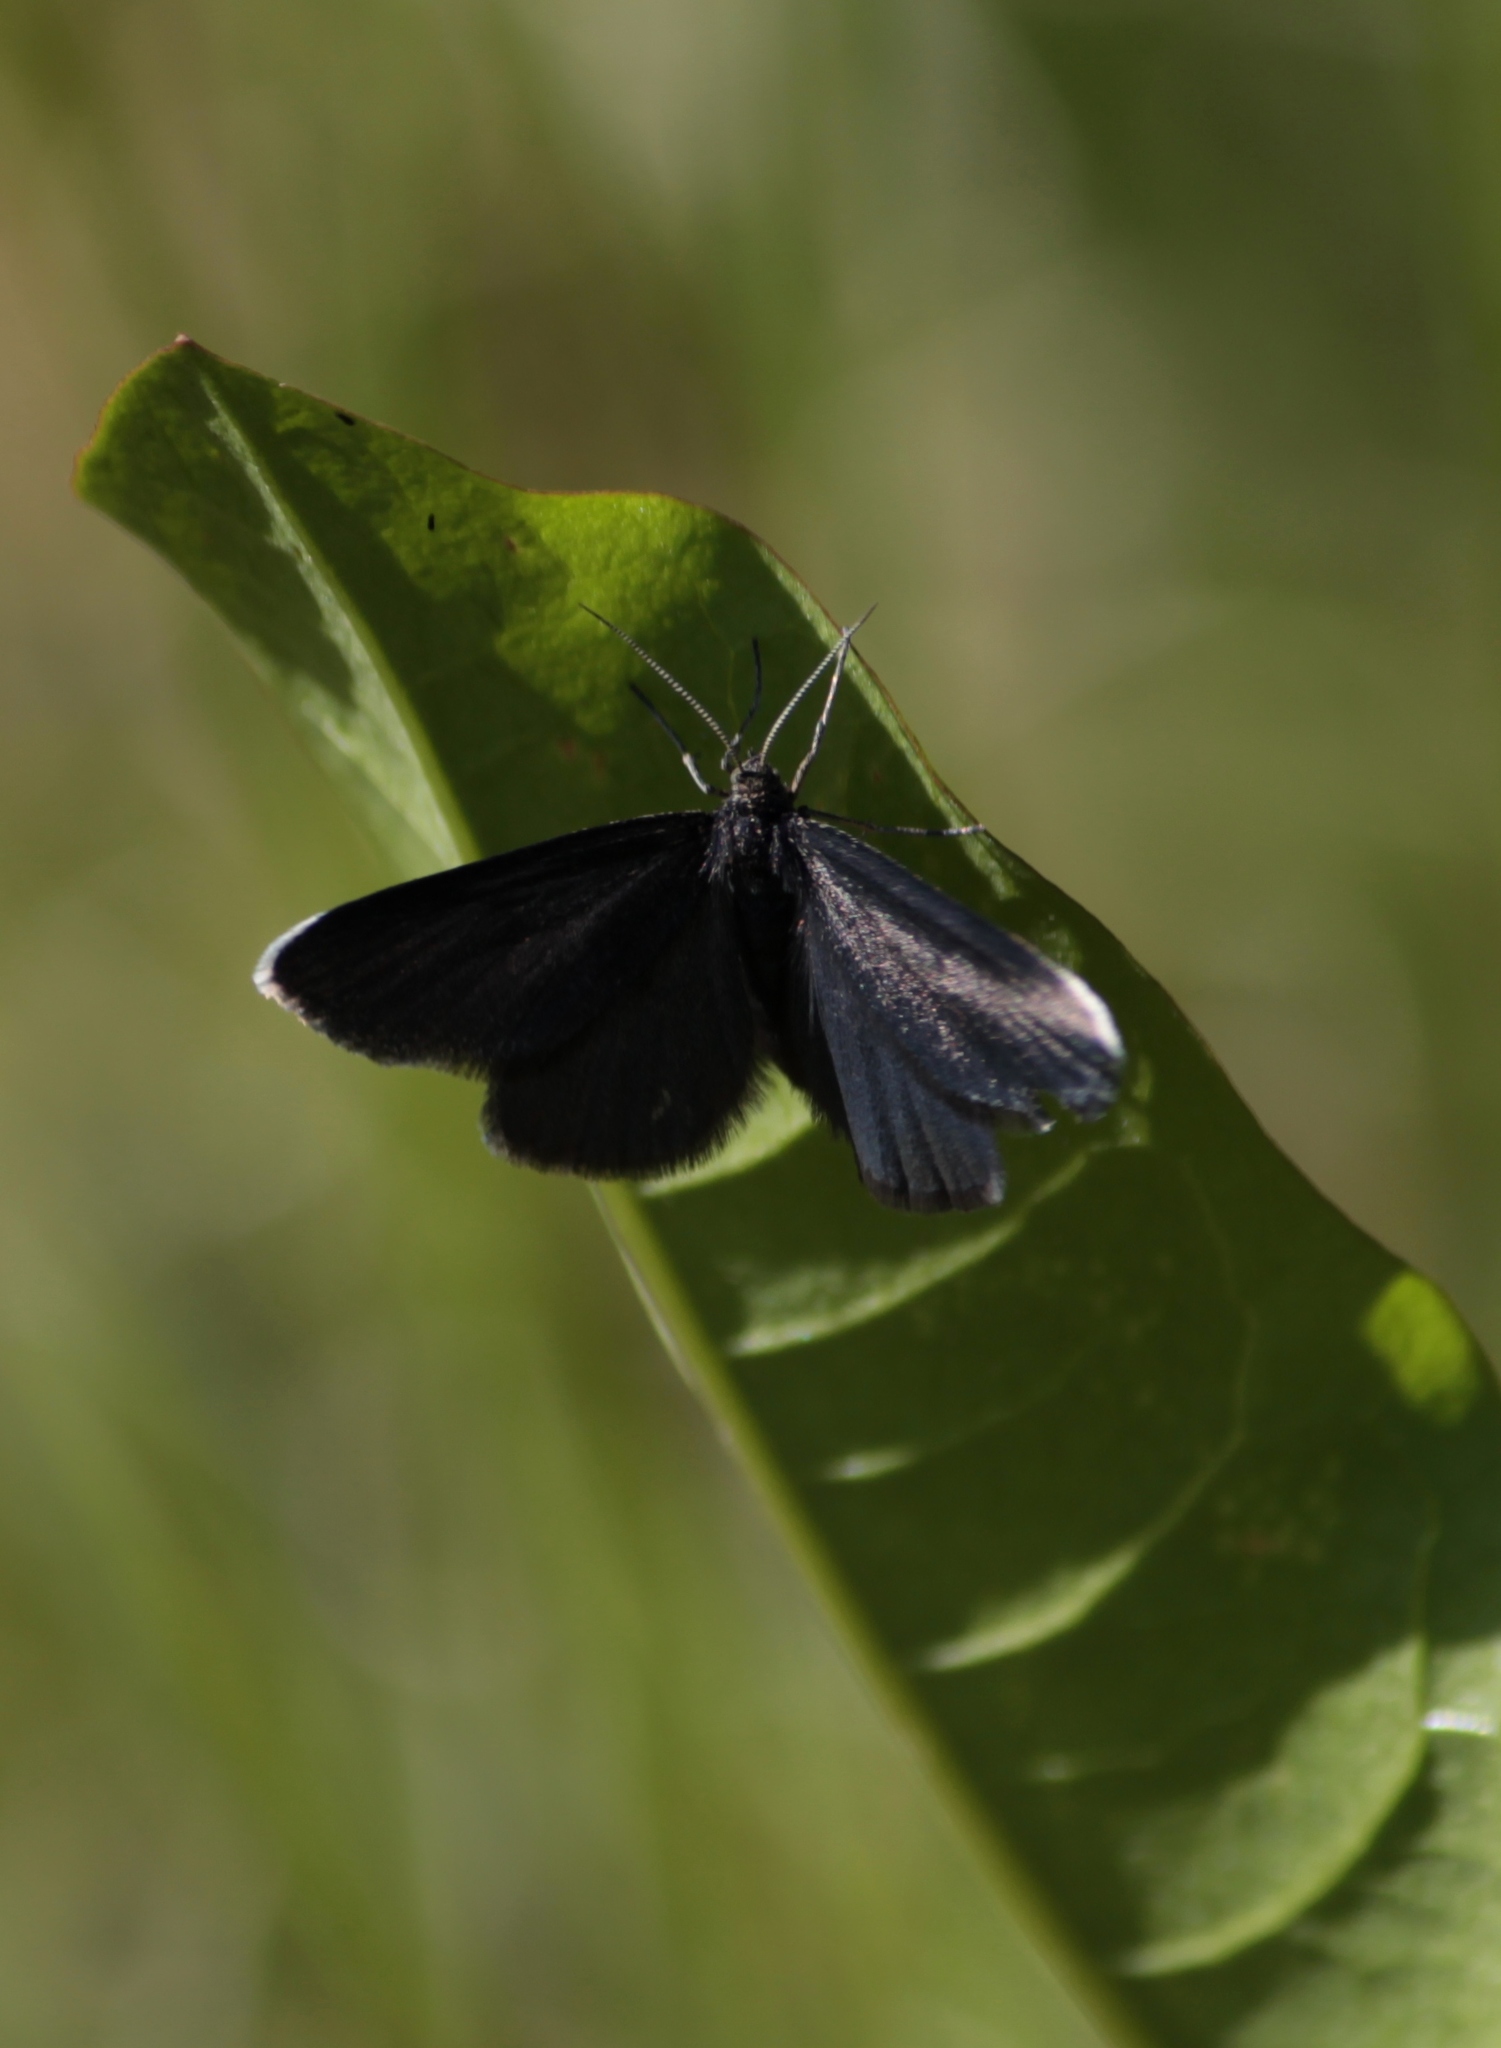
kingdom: Animalia
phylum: Arthropoda
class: Insecta
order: Lepidoptera
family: Geometridae
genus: Odezia
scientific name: Odezia atrata
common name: Chimney sweeper
